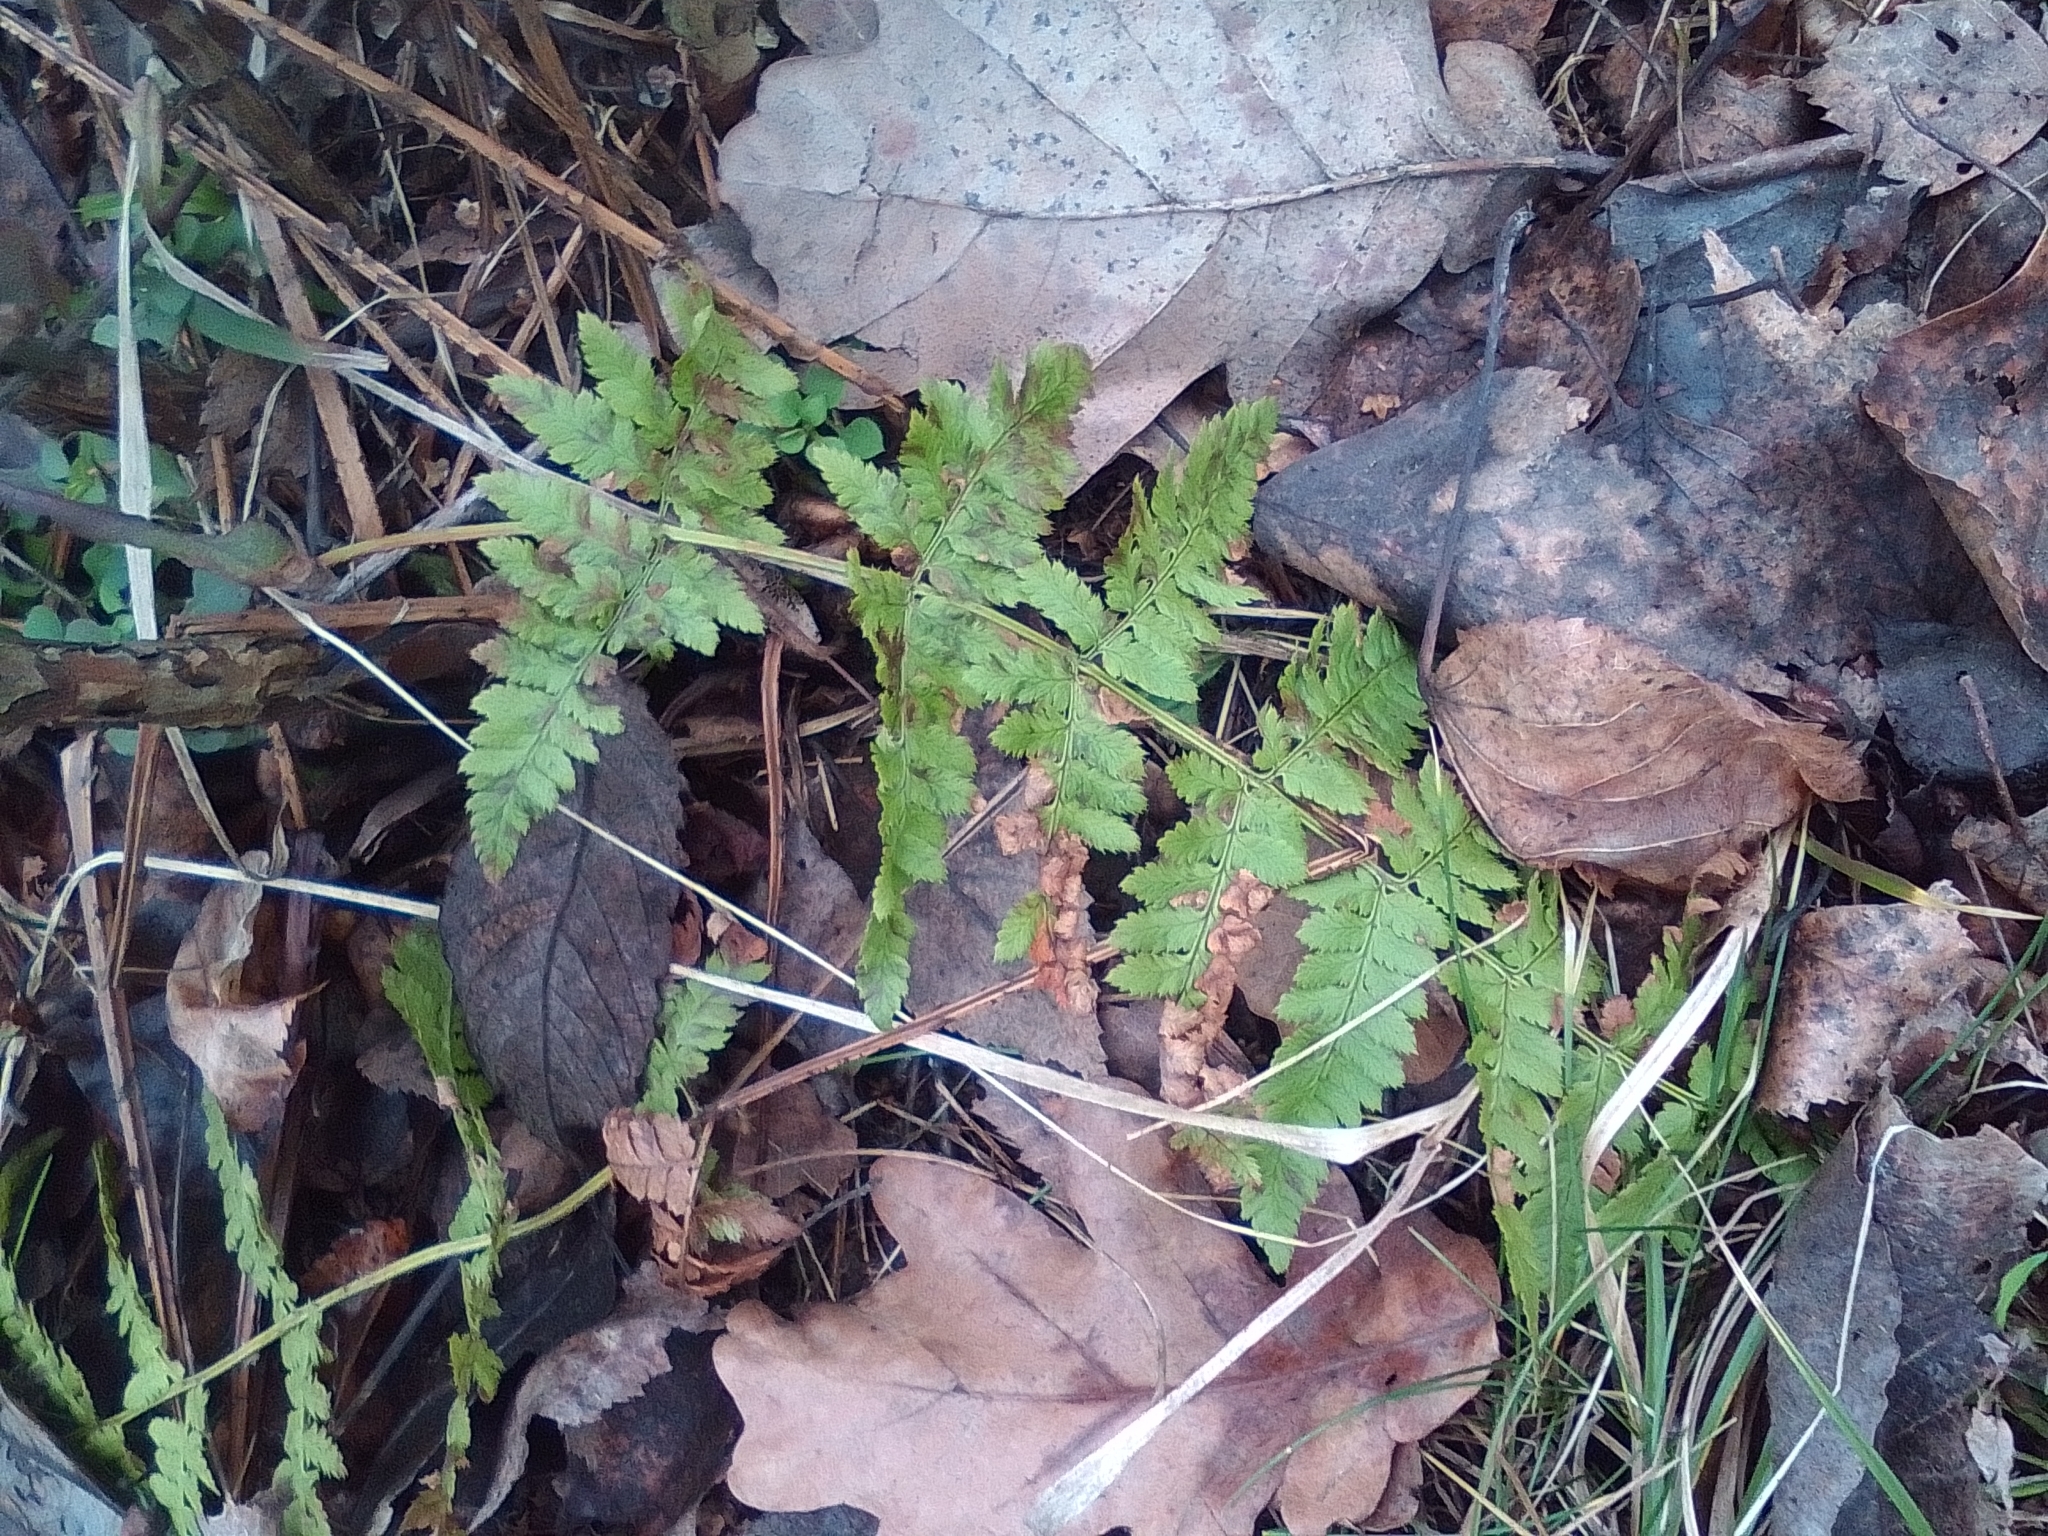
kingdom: Plantae
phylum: Tracheophyta
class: Polypodiopsida
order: Polypodiales
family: Dryopteridaceae
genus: Dryopteris
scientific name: Dryopteris carthusiana
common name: Narrow buckler-fern
